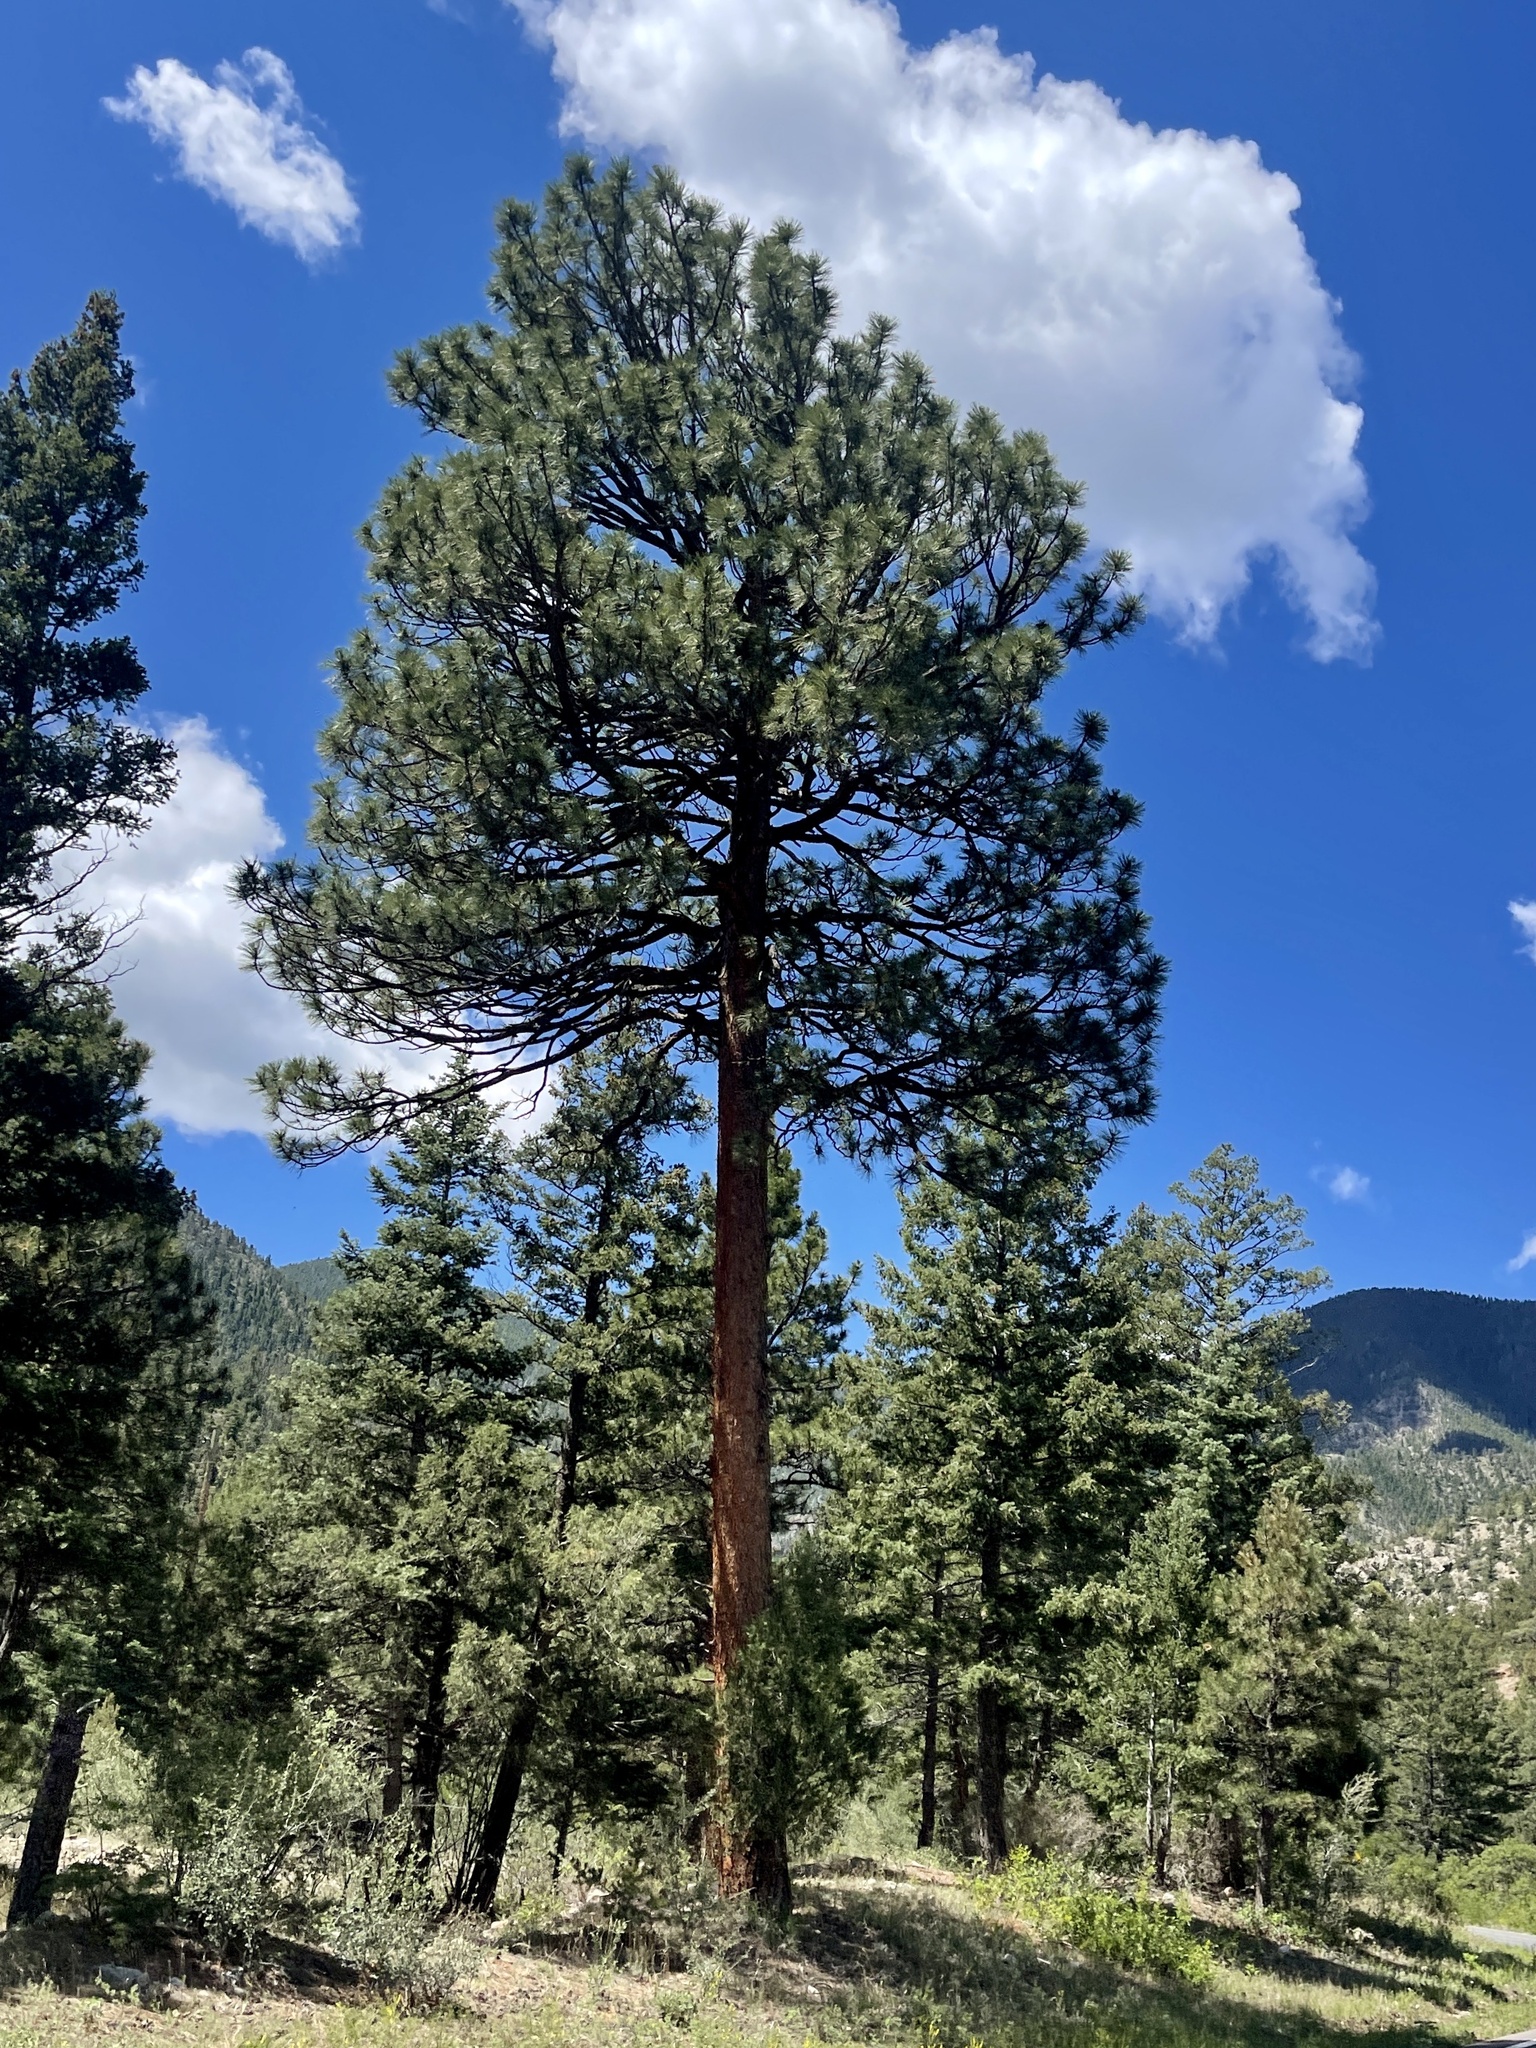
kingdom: Plantae
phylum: Tracheophyta
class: Pinopsida
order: Pinales
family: Pinaceae
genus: Pinus
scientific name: Pinus ponderosa
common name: Western yellow-pine
